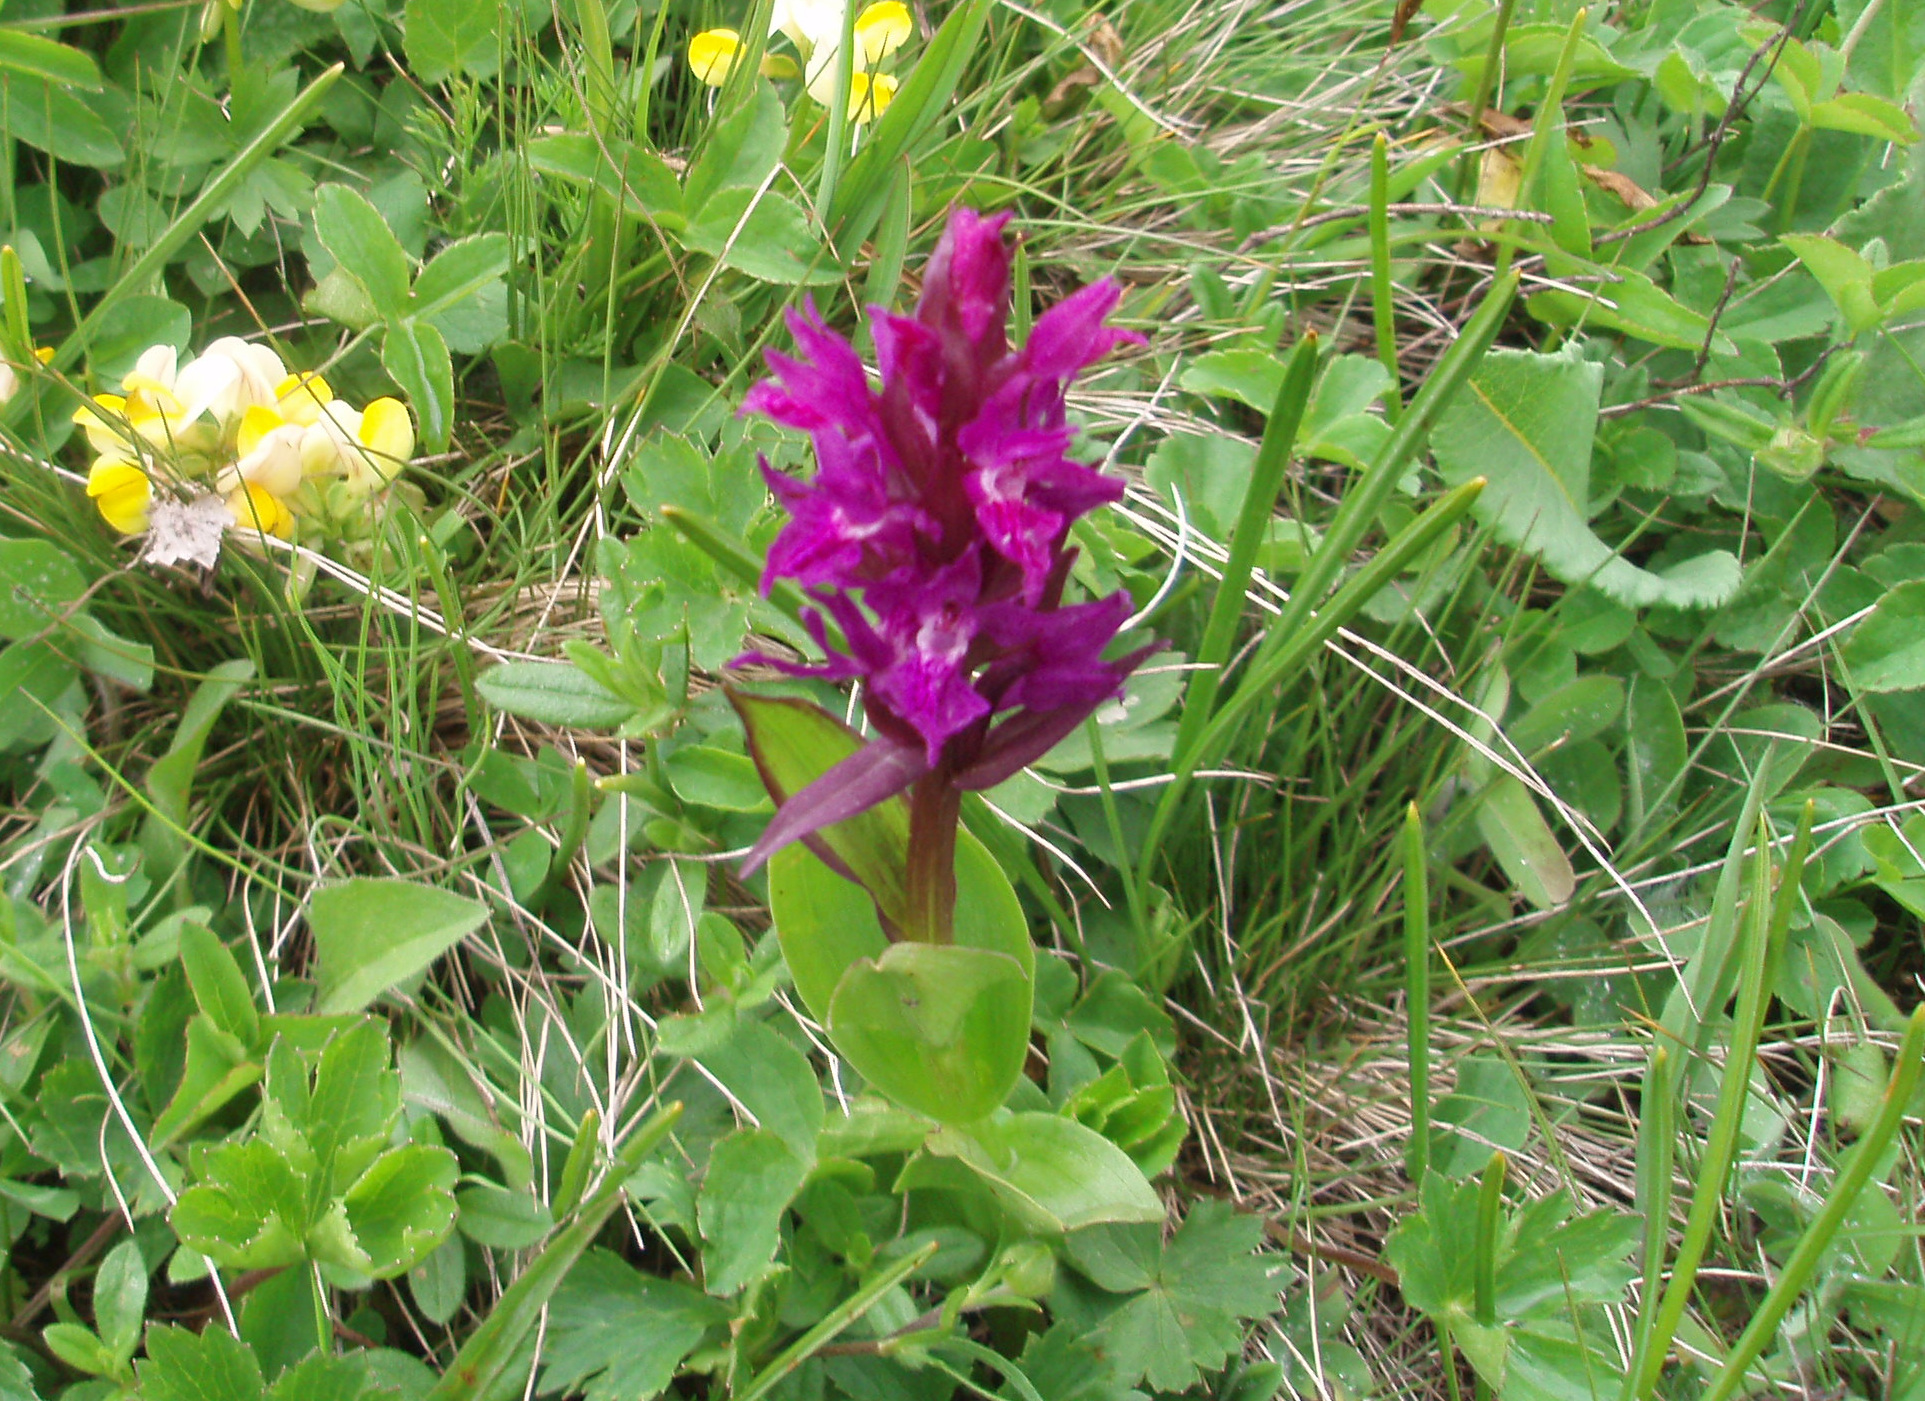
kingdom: Plantae
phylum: Tracheophyta
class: Liliopsida
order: Asparagales
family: Orchidaceae
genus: Dactylorhiza
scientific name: Dactylorhiza euxina
